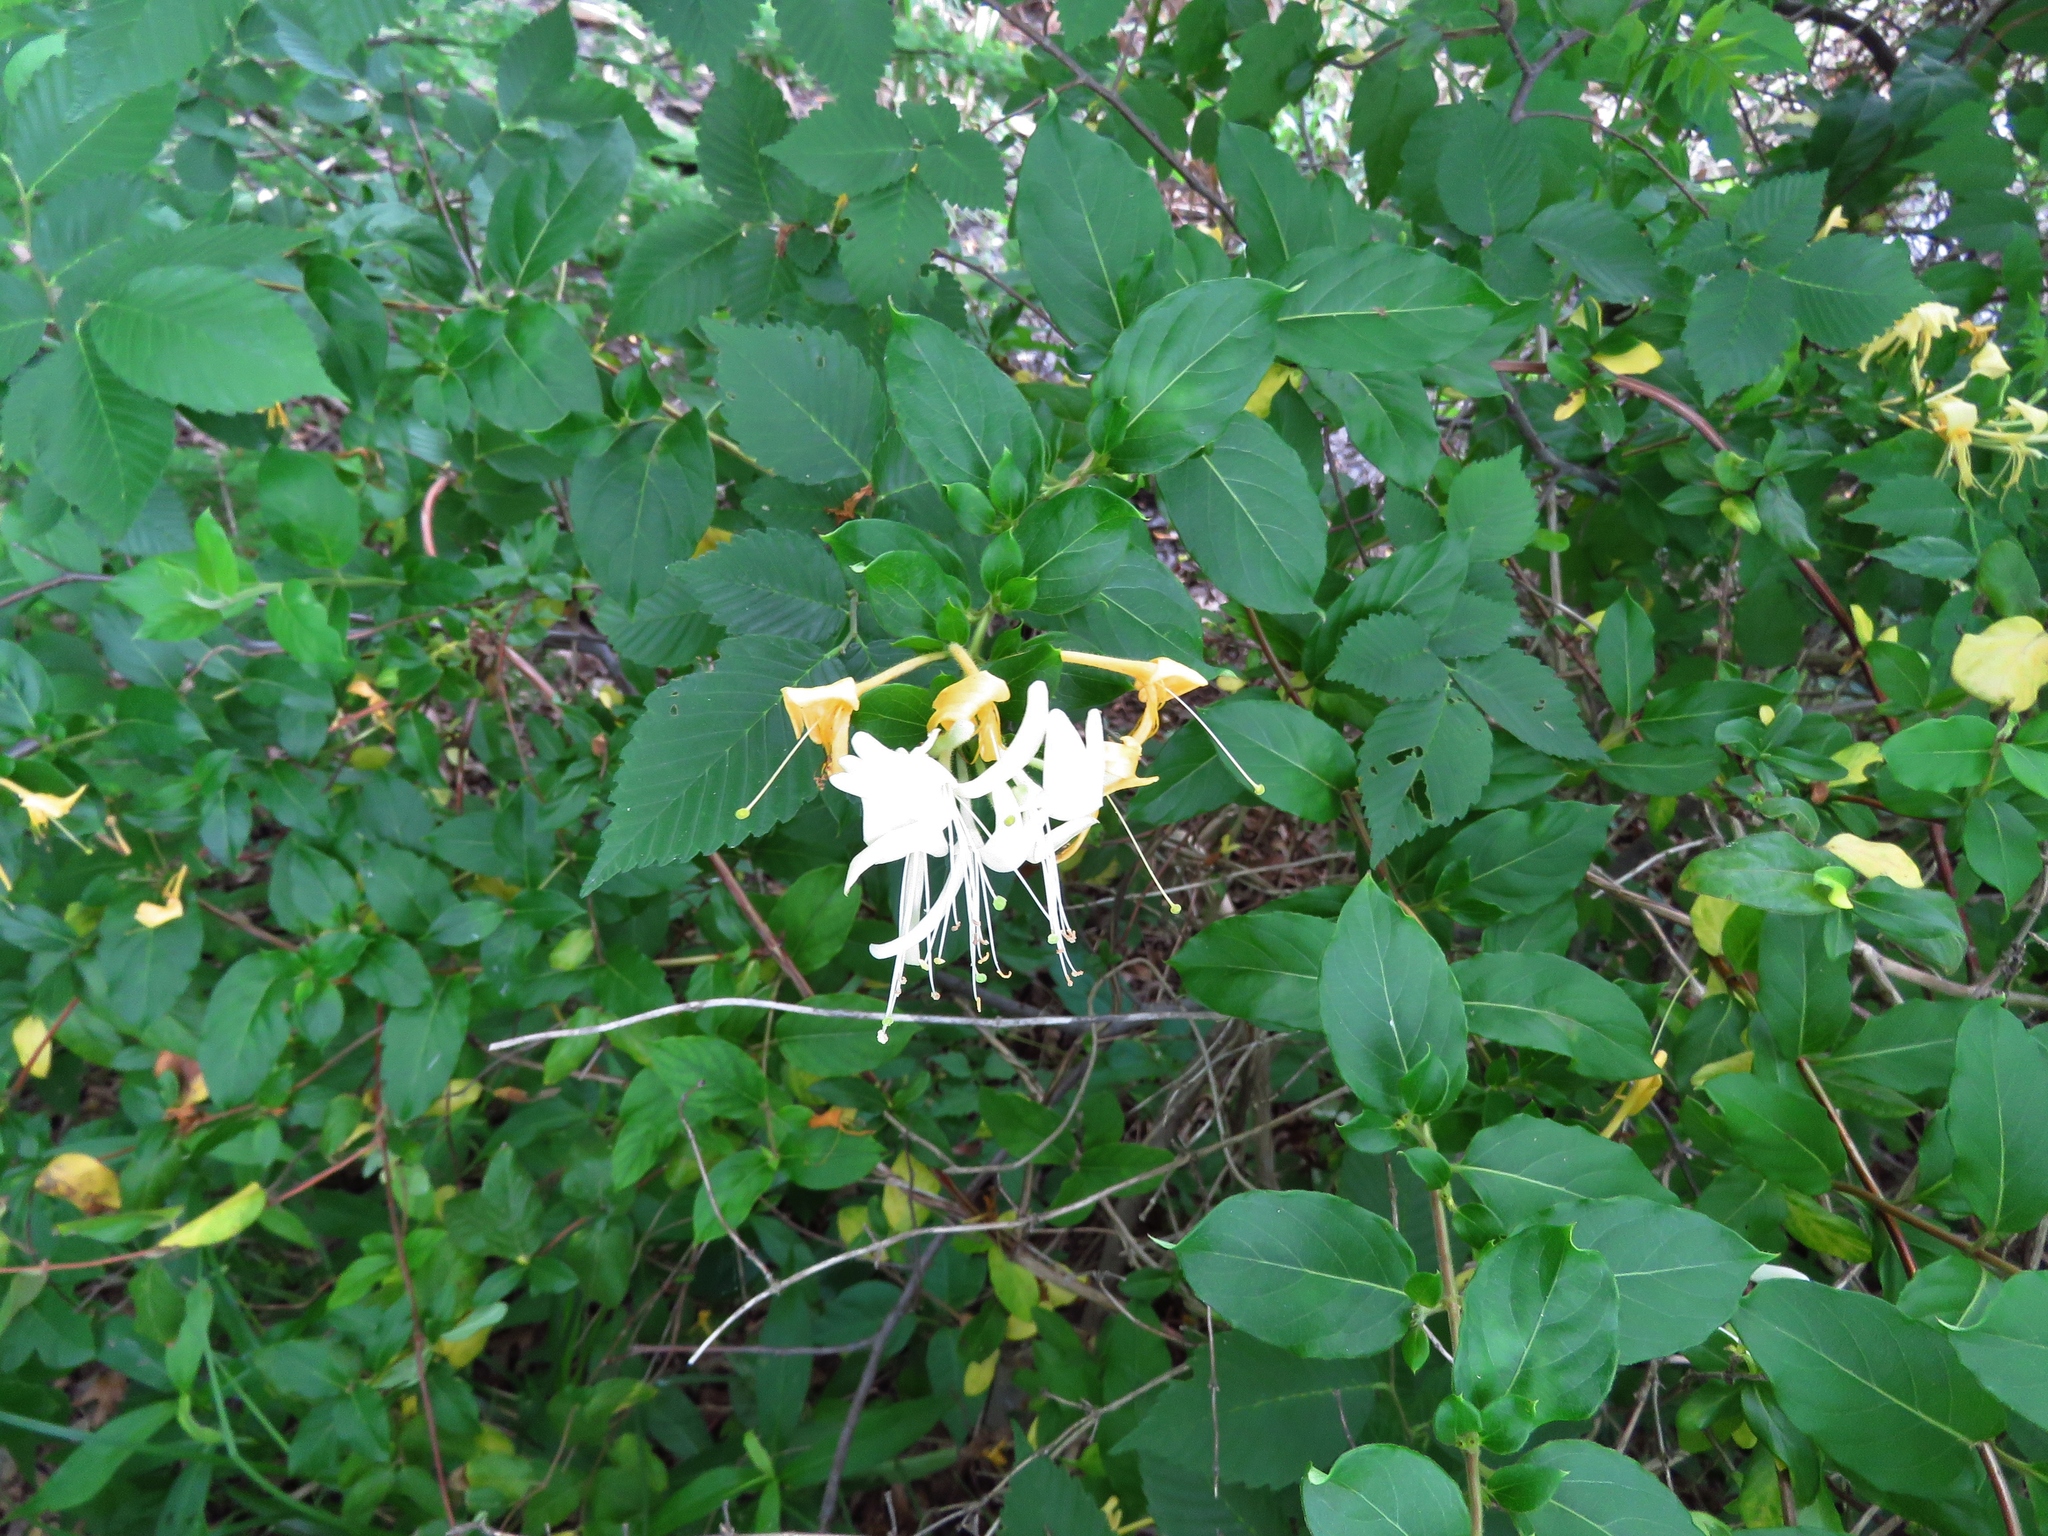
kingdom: Plantae
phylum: Tracheophyta
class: Magnoliopsida
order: Dipsacales
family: Caprifoliaceae
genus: Lonicera
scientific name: Lonicera japonica
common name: Japanese honeysuckle
